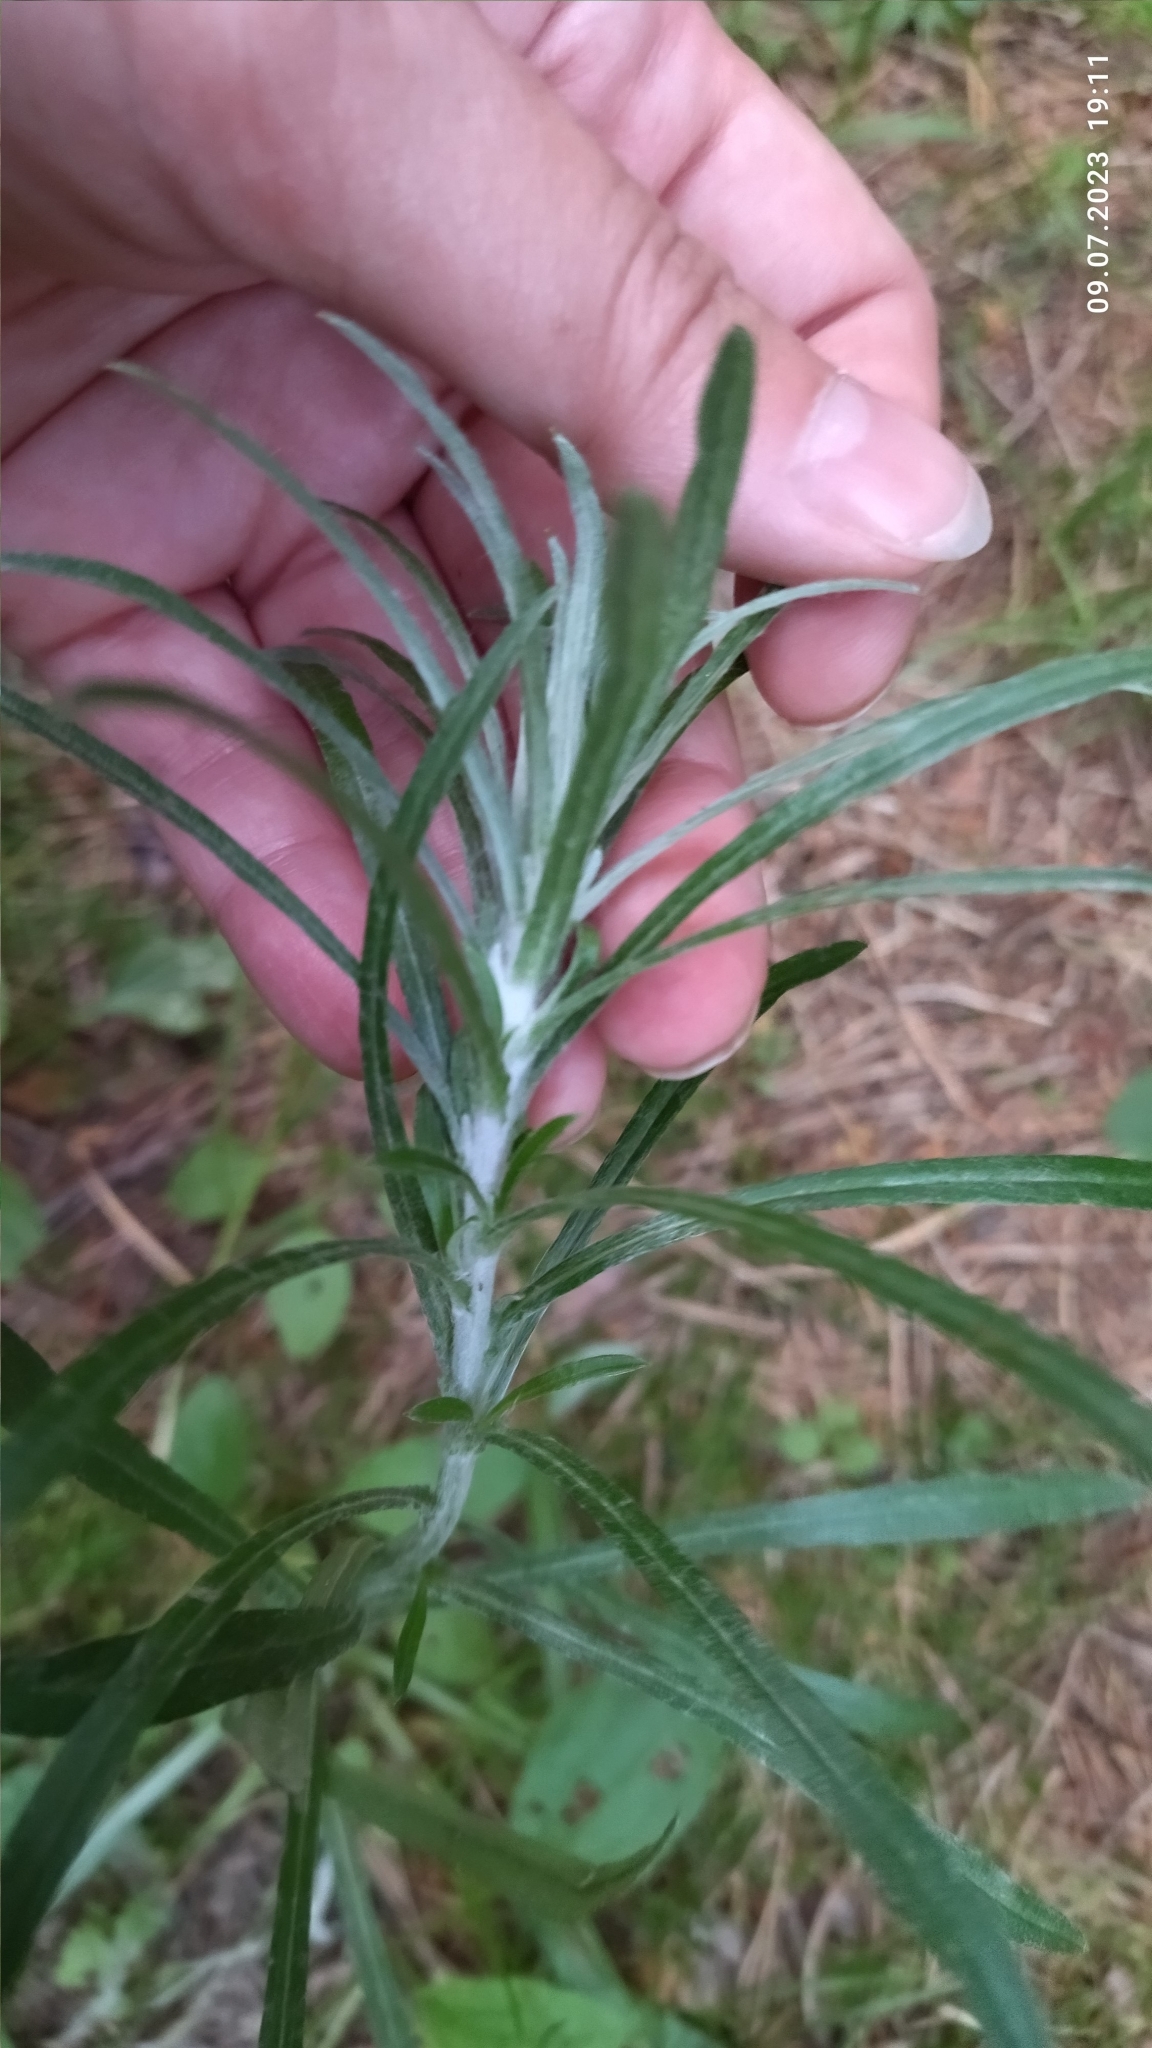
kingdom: Plantae
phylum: Tracheophyta
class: Magnoliopsida
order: Asterales
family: Asteraceae
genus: Omalotheca
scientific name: Omalotheca sylvatica
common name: Heath cudweed
